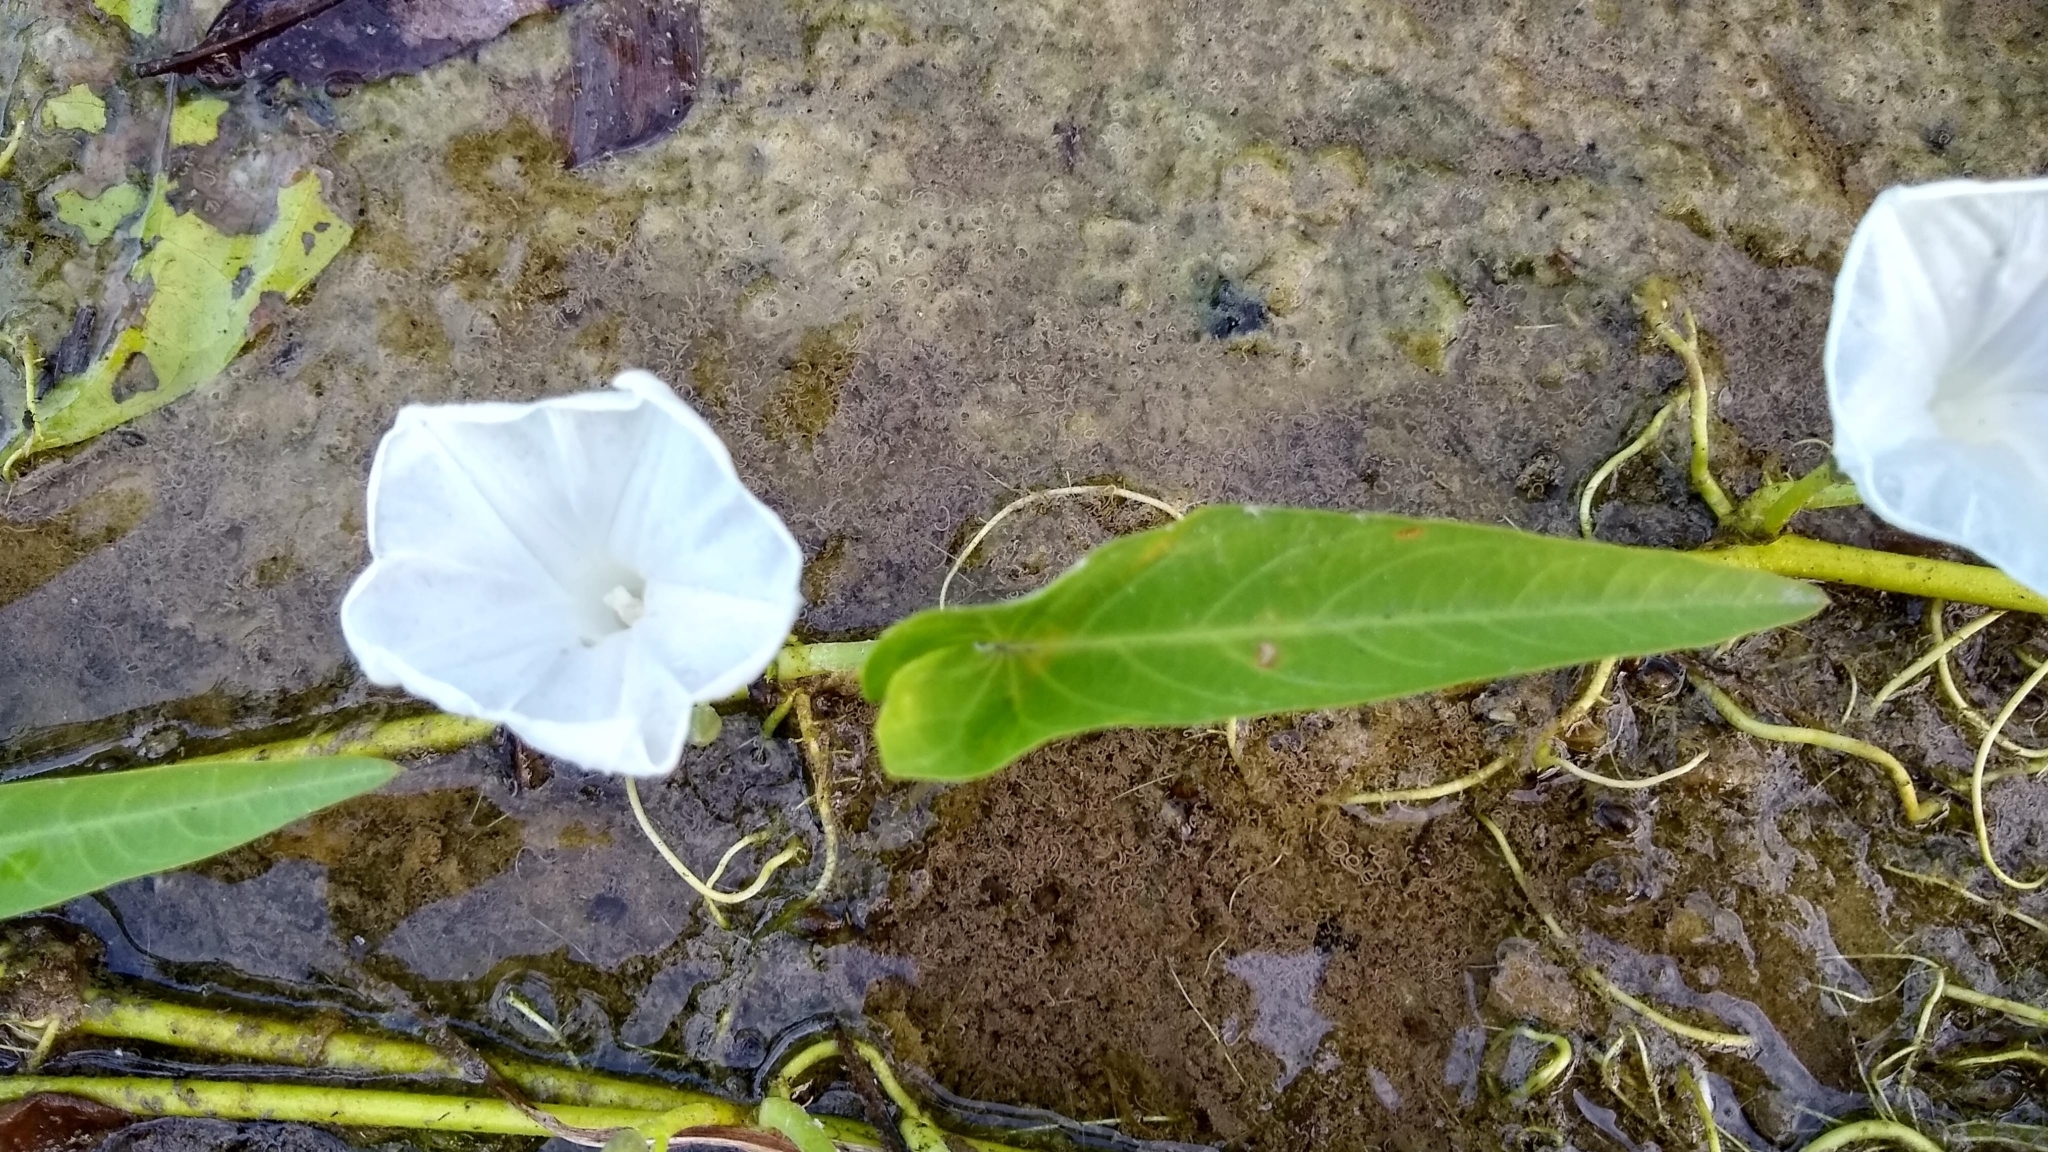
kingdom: Plantae
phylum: Tracheophyta
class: Magnoliopsida
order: Solanales
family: Convolvulaceae
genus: Ipomoea
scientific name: Ipomoea aquatica
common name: Swamp morning-glory
